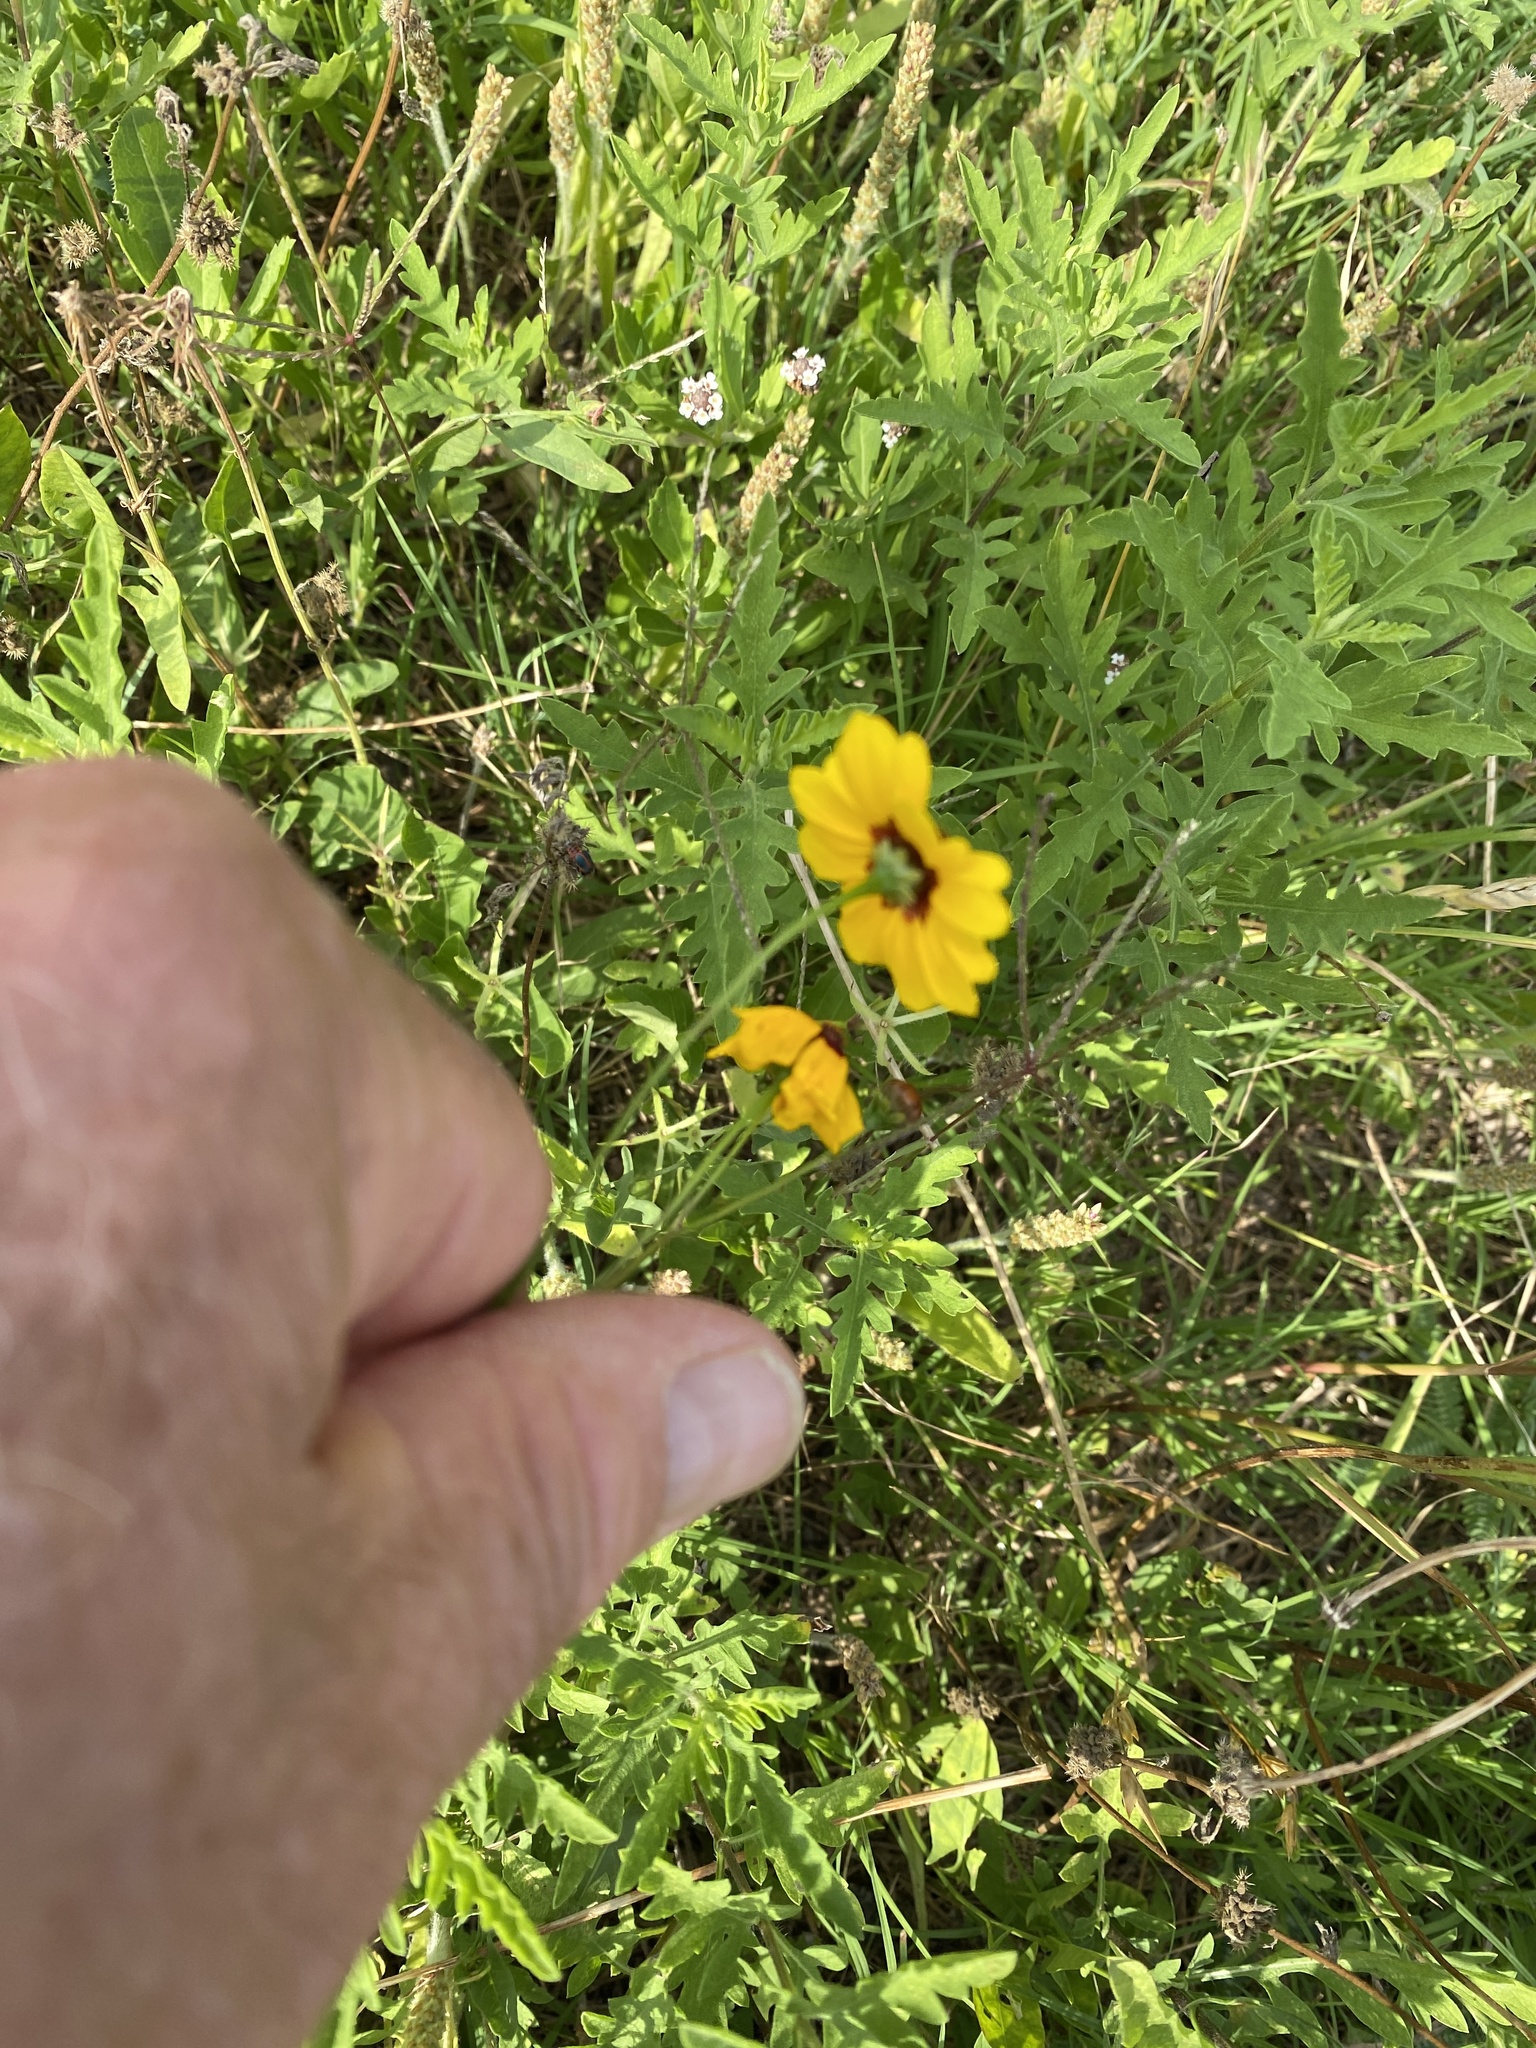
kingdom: Plantae
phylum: Tracheophyta
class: Magnoliopsida
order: Asterales
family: Asteraceae
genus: Coreopsis
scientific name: Coreopsis tinctoria
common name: Garden tickseed
